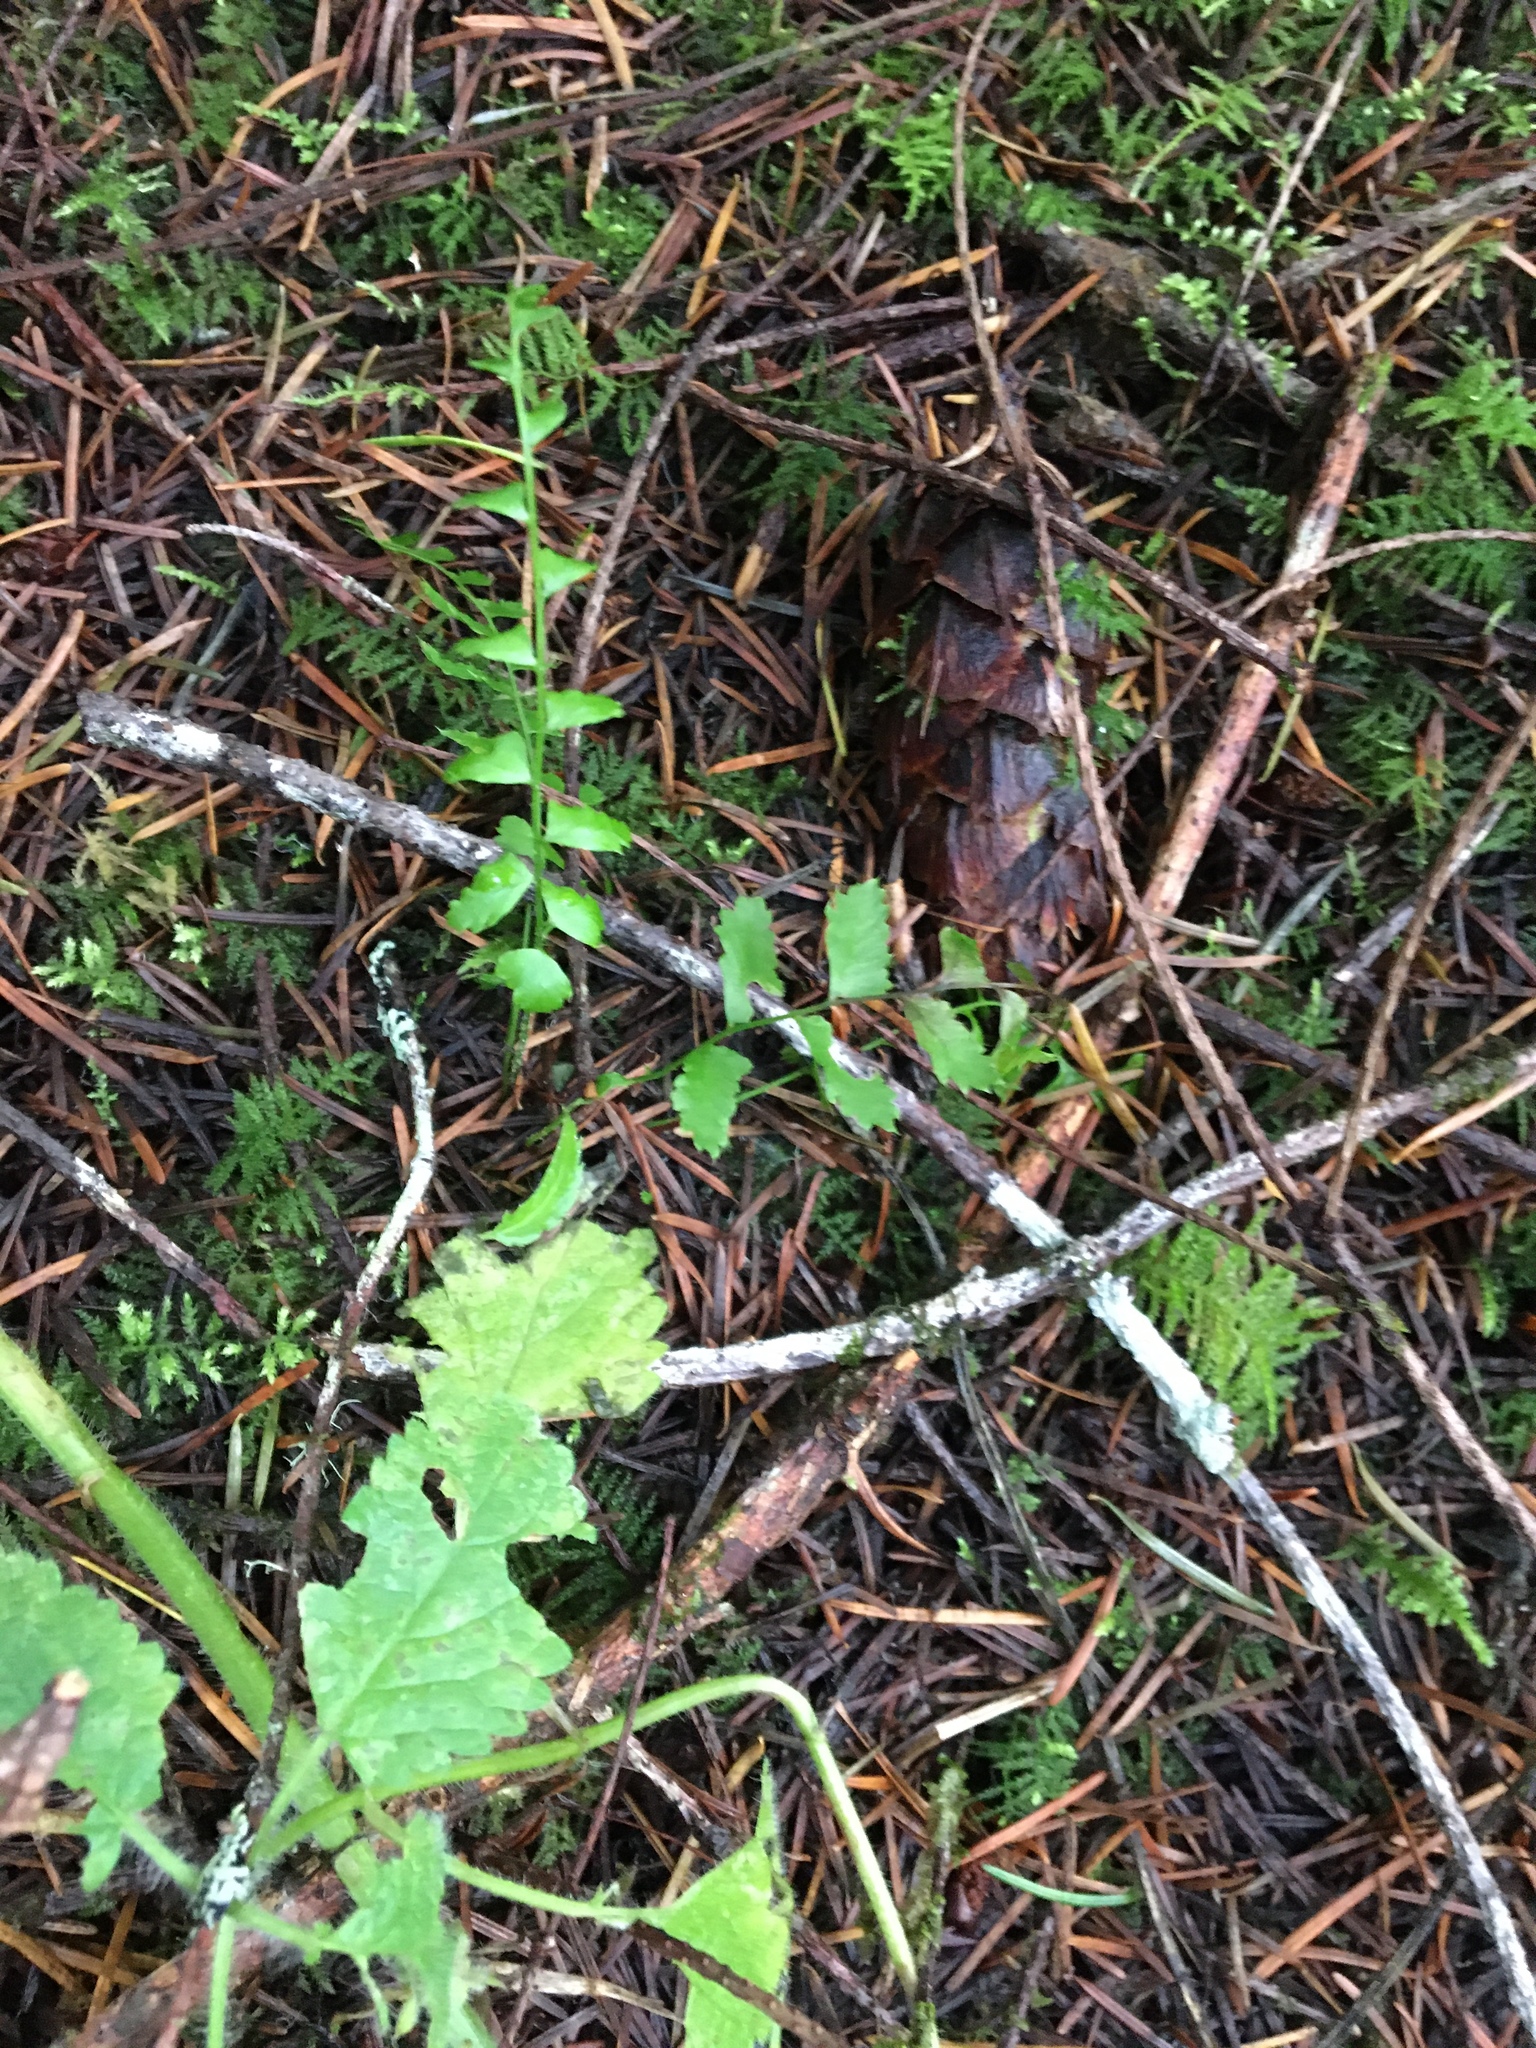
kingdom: Plantae
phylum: Tracheophyta
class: Polypodiopsida
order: Polypodiales
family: Dryopteridaceae
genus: Polystichum
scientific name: Polystichum munitum
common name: Western sword-fern
